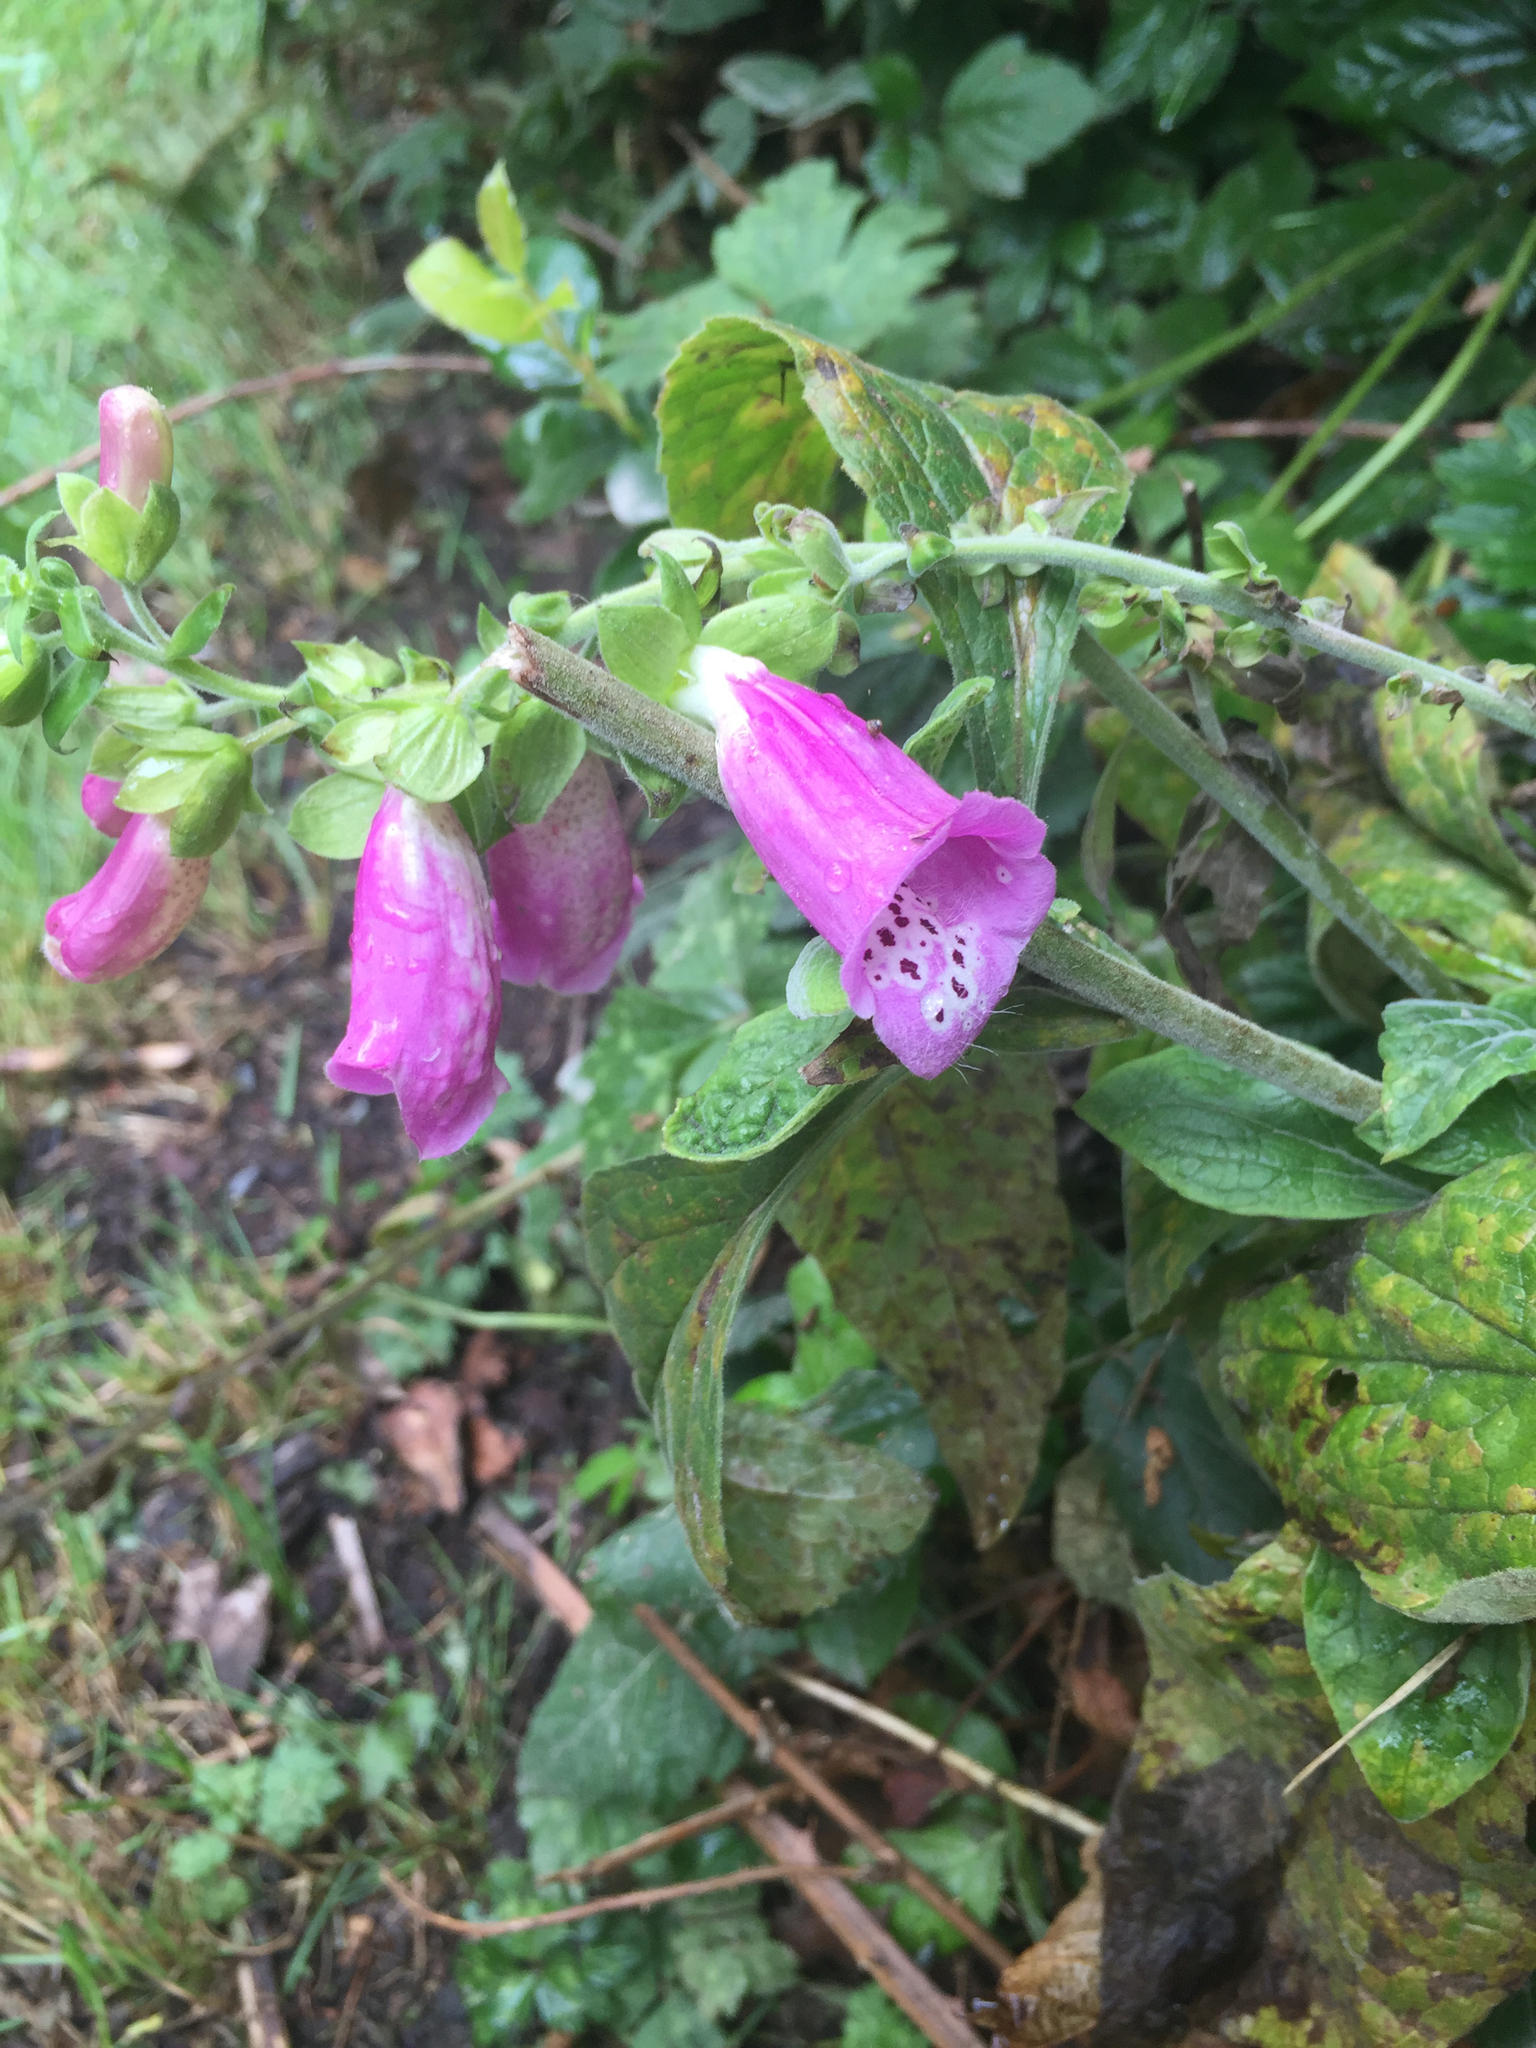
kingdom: Plantae
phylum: Tracheophyta
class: Magnoliopsida
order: Lamiales
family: Plantaginaceae
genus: Digitalis
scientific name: Digitalis purpurea
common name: Foxglove
